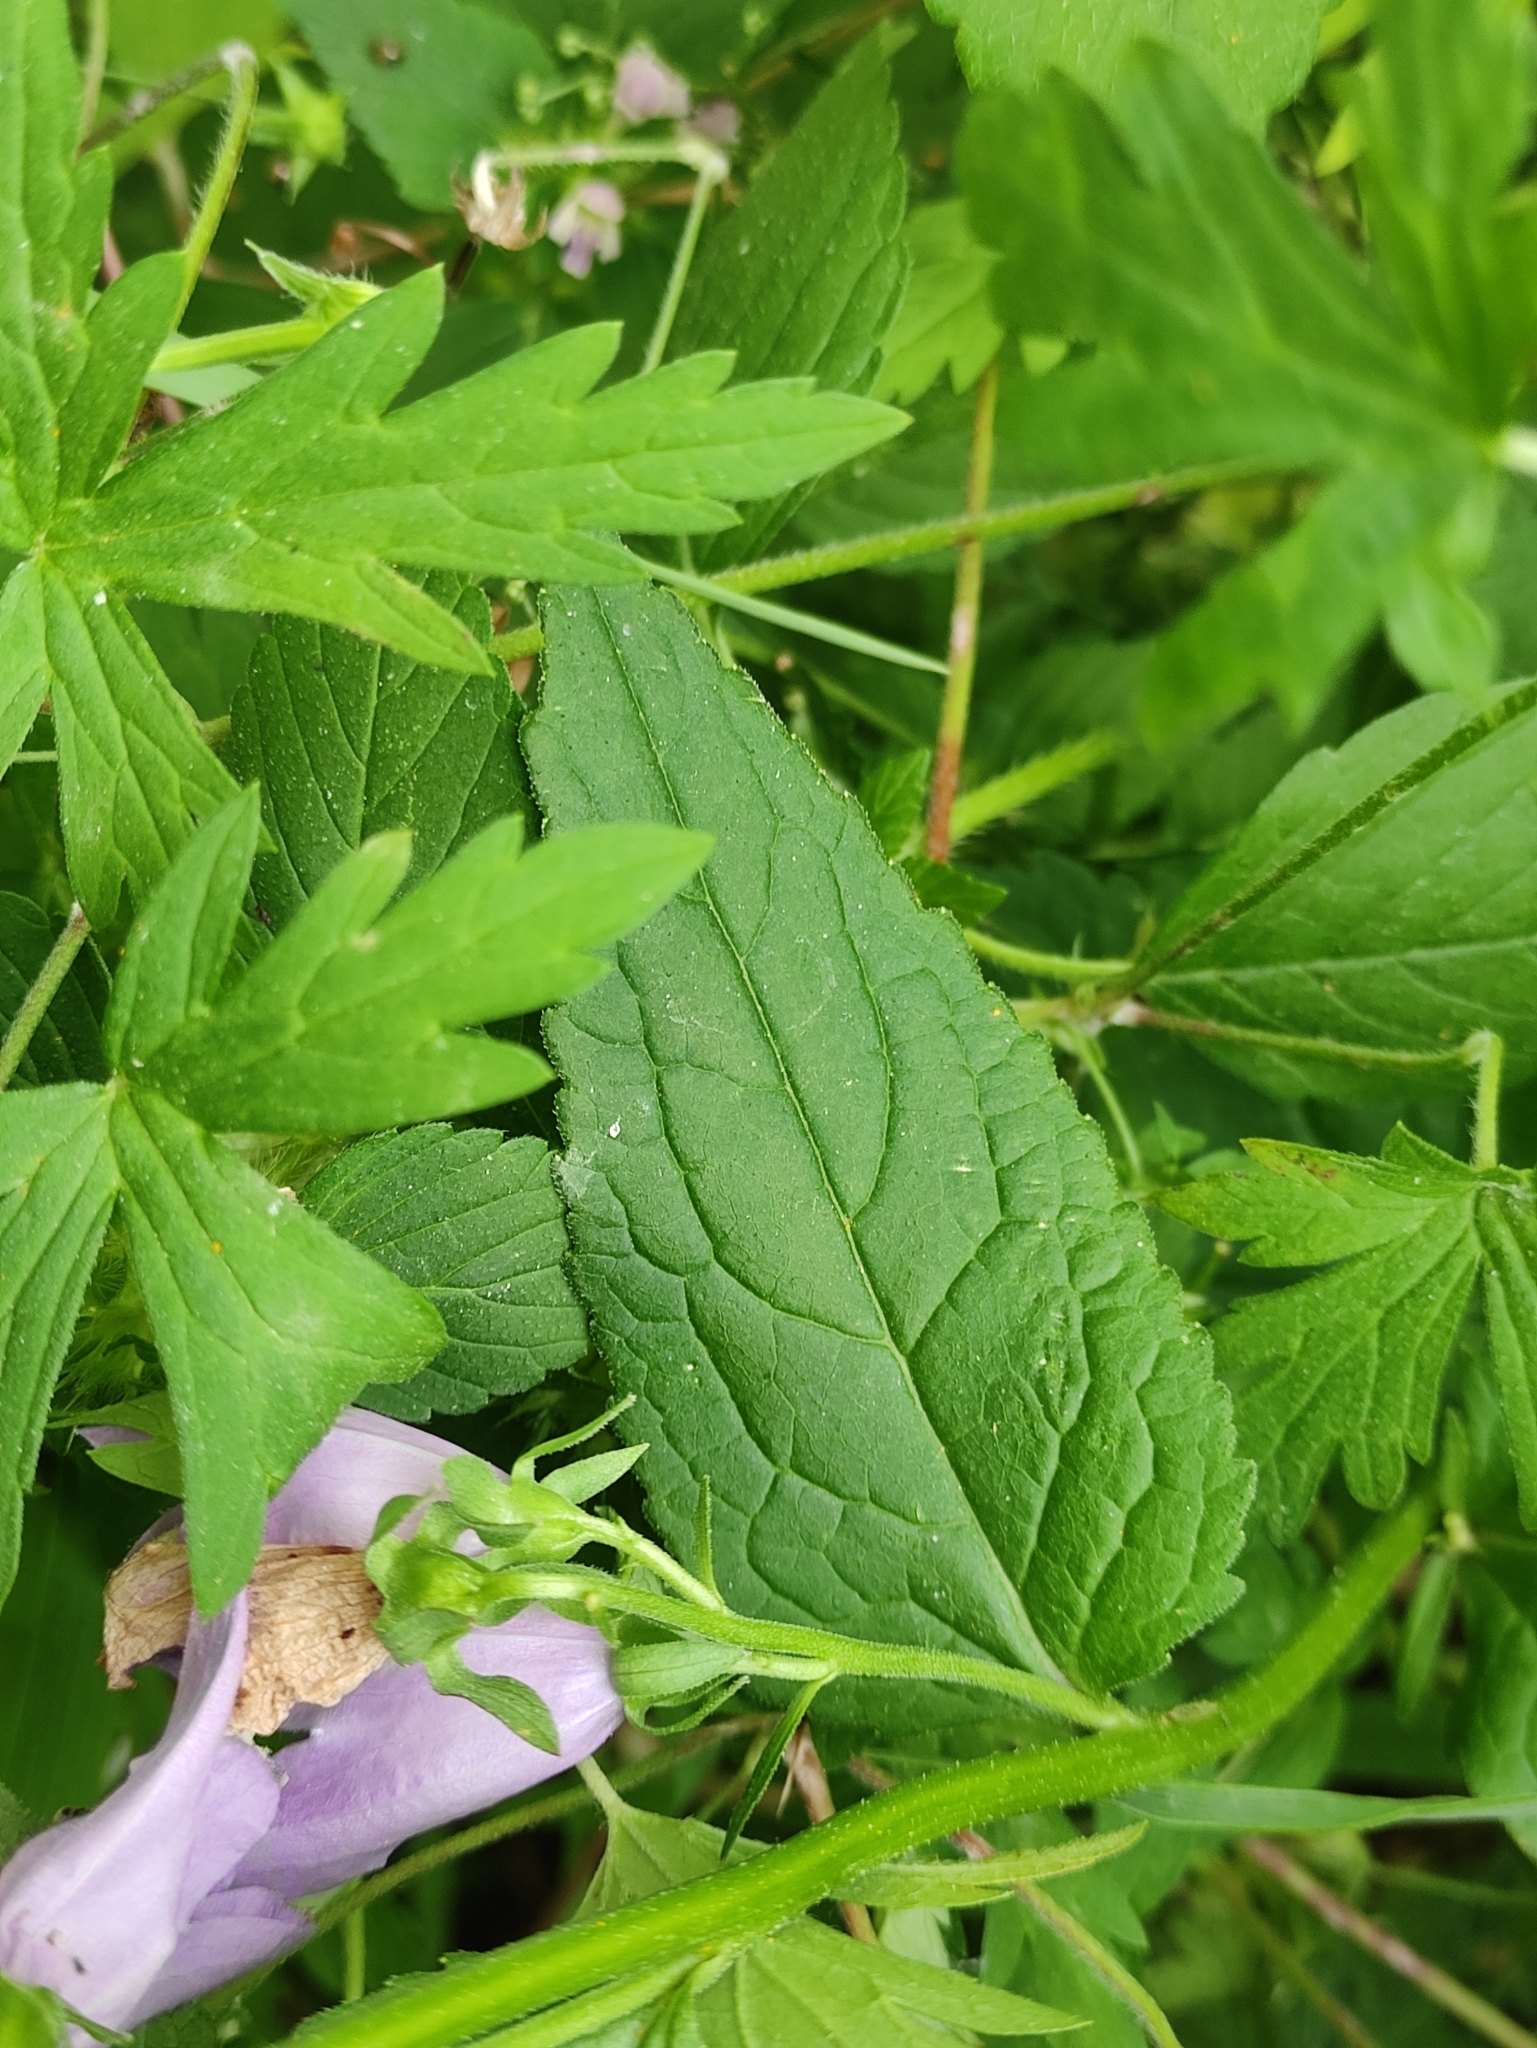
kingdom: Plantae
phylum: Tracheophyta
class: Magnoliopsida
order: Asterales
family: Campanulaceae
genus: Campanula
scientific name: Campanula rapunculoides
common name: Creeping bellflower
